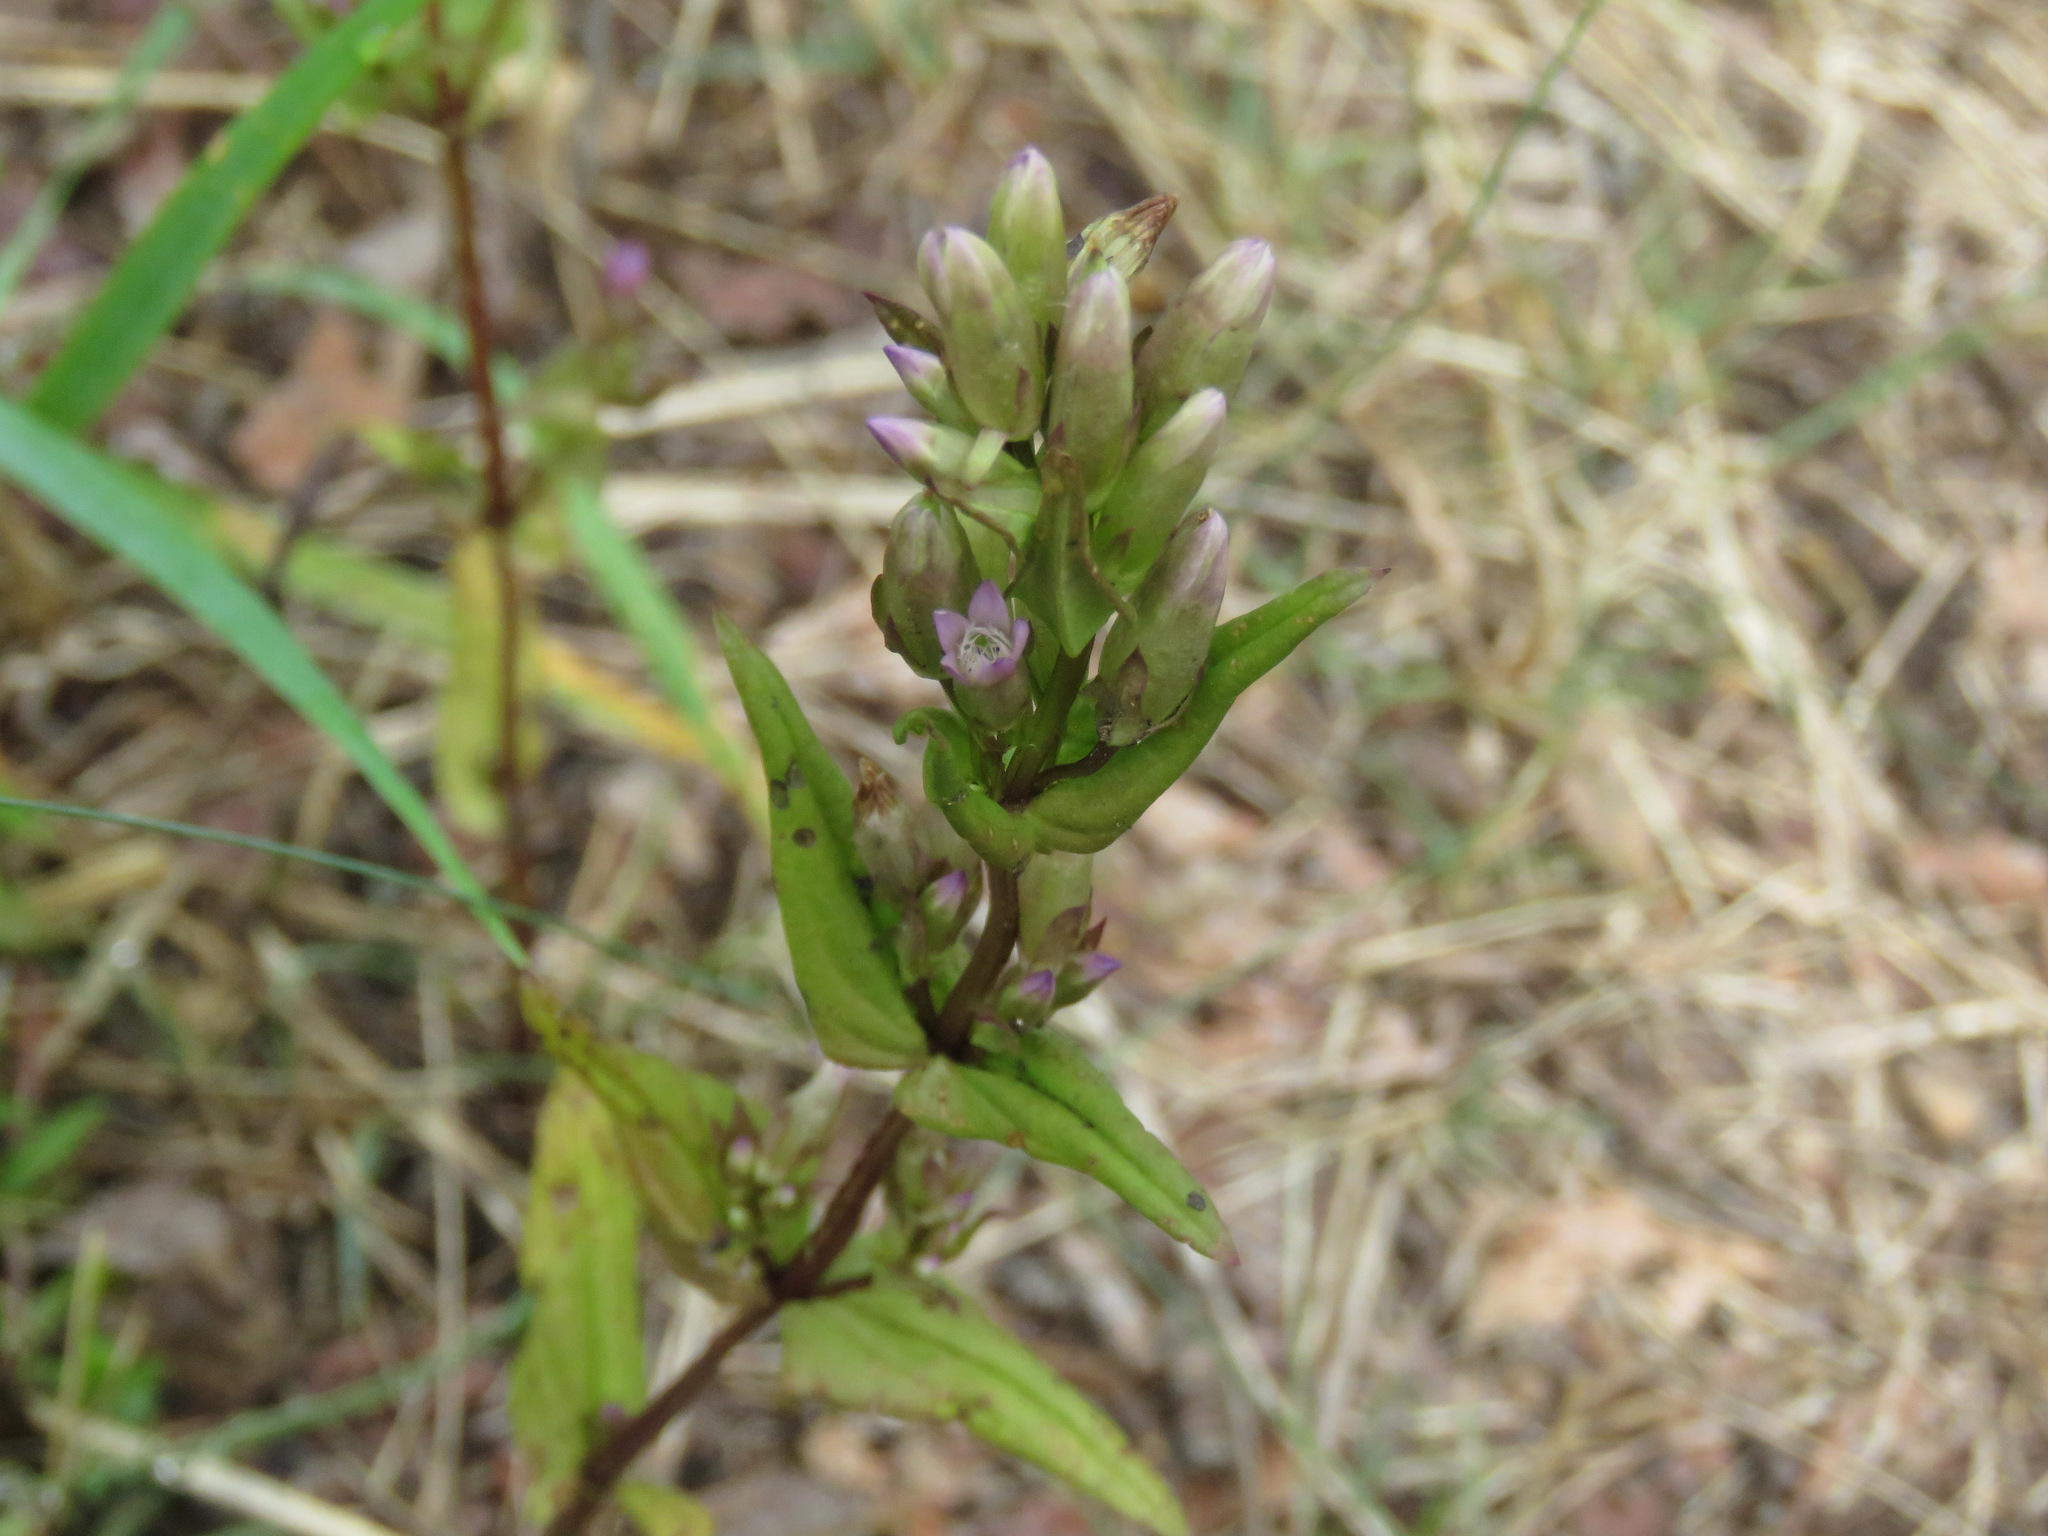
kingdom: Plantae
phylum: Tracheophyta
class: Magnoliopsida
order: Gentianales
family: Gentianaceae
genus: Gentianella
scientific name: Gentianella amarella
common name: Autumn gentian
